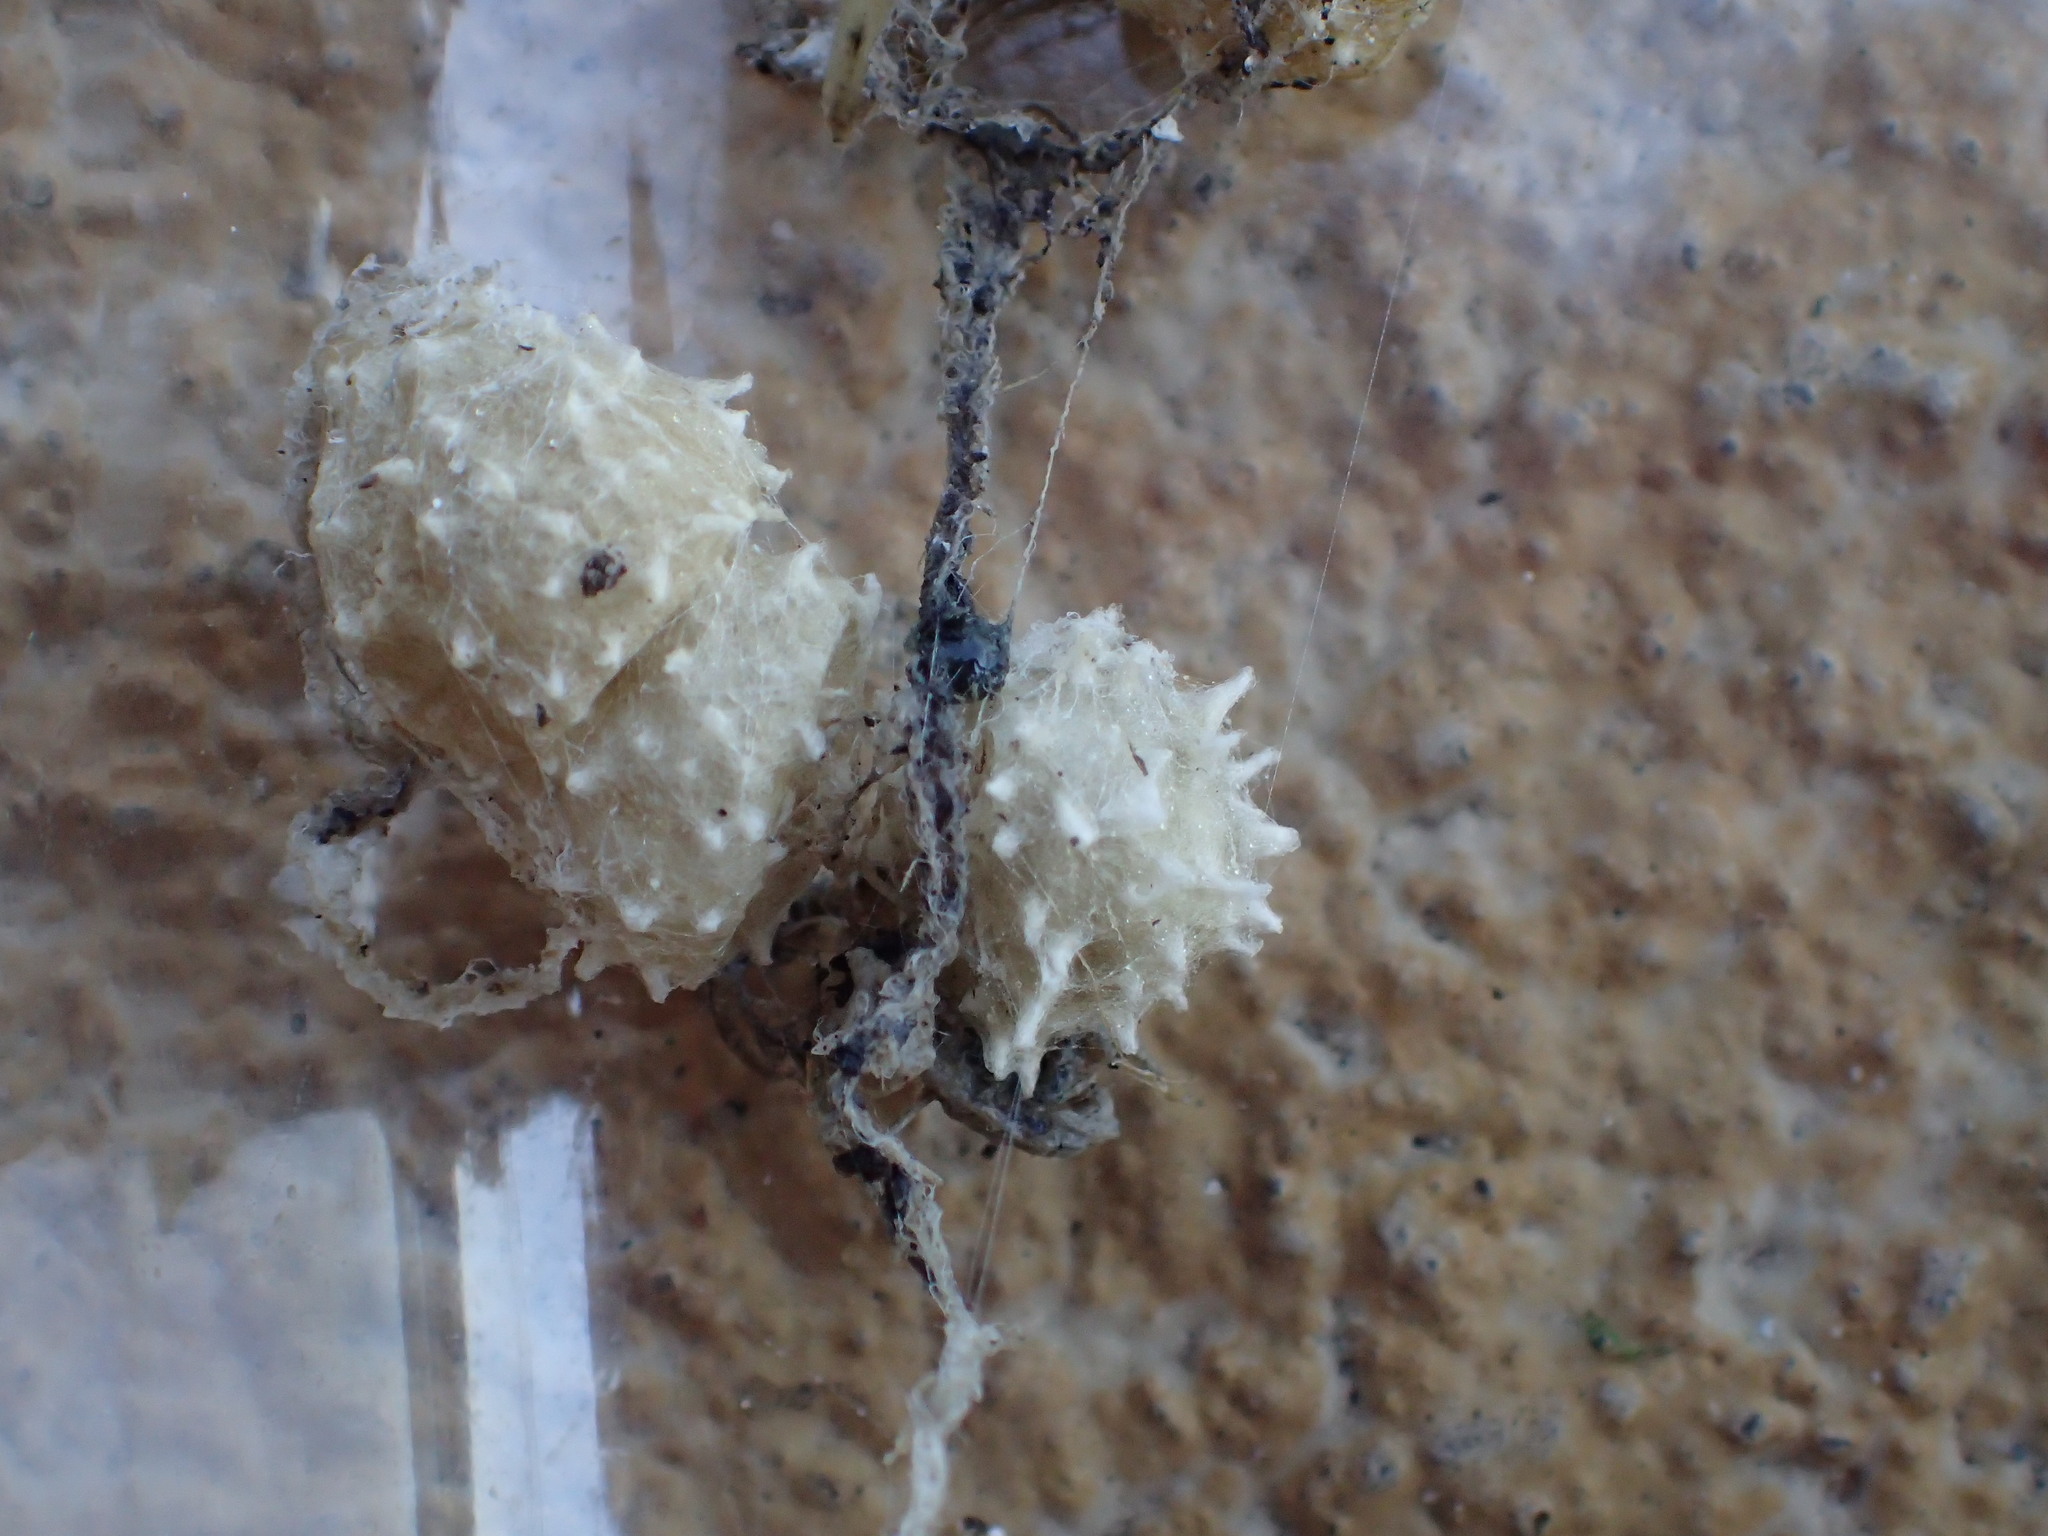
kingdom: Animalia
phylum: Arthropoda
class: Arachnida
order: Araneae
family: Theridiidae
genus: Latrodectus
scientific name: Latrodectus geometricus
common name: Brown widow spider
